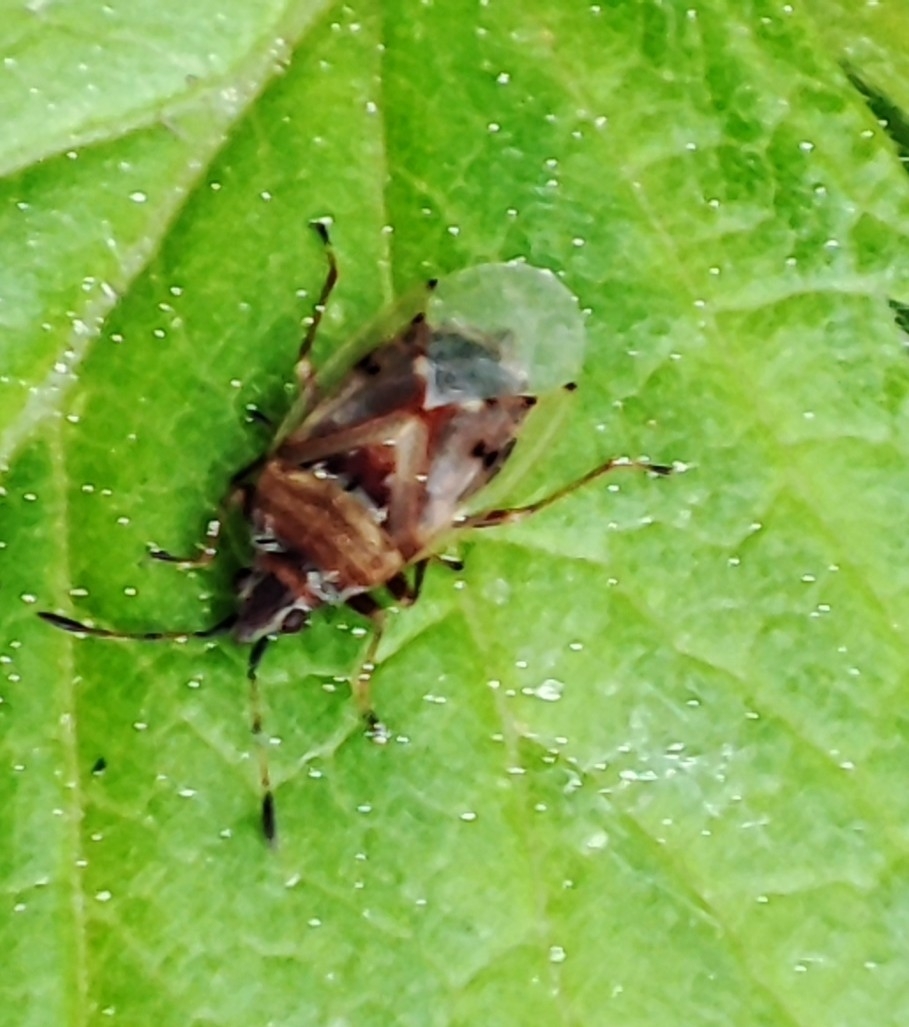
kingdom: Animalia
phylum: Arthropoda
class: Insecta
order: Hemiptera
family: Lygaeidae
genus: Kleidocerys
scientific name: Kleidocerys resedae
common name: Birch catkin bug
